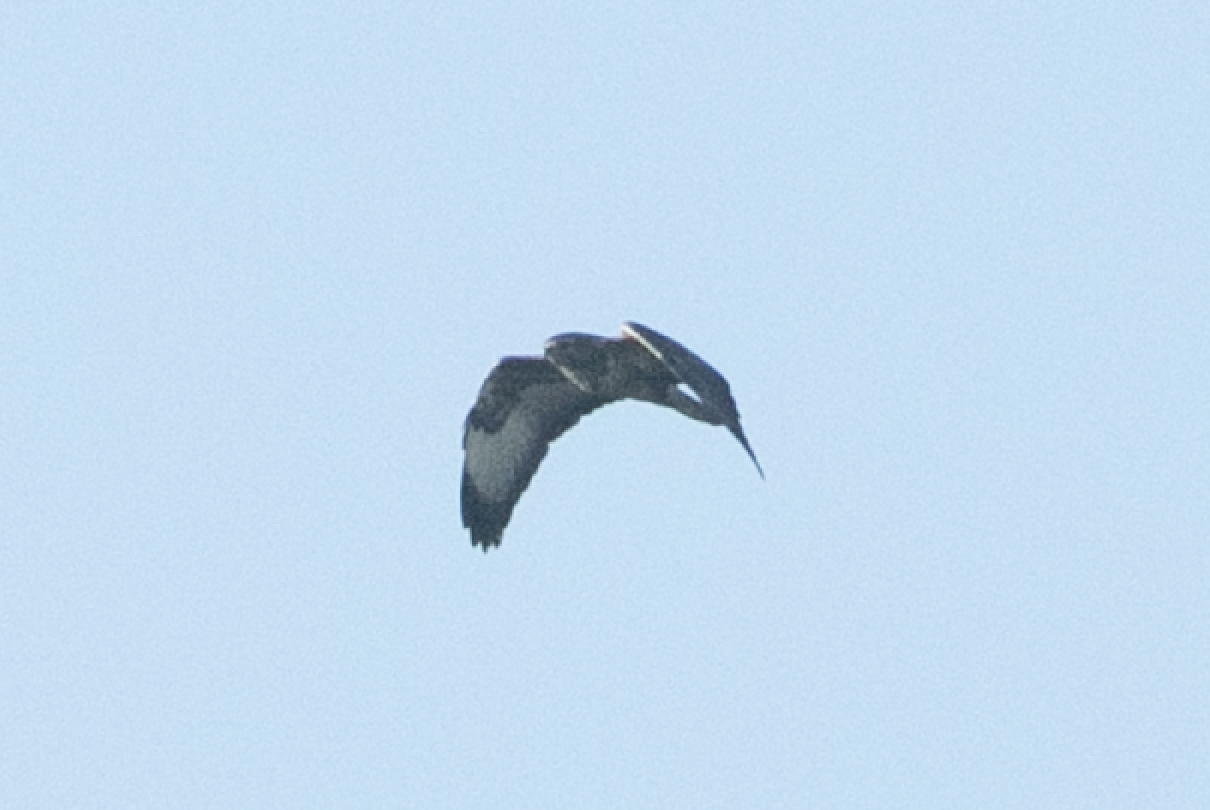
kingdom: Animalia
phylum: Chordata
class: Aves
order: Accipitriformes
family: Accipitridae
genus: Buteo
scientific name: Buteo buteo
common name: Common buzzard
